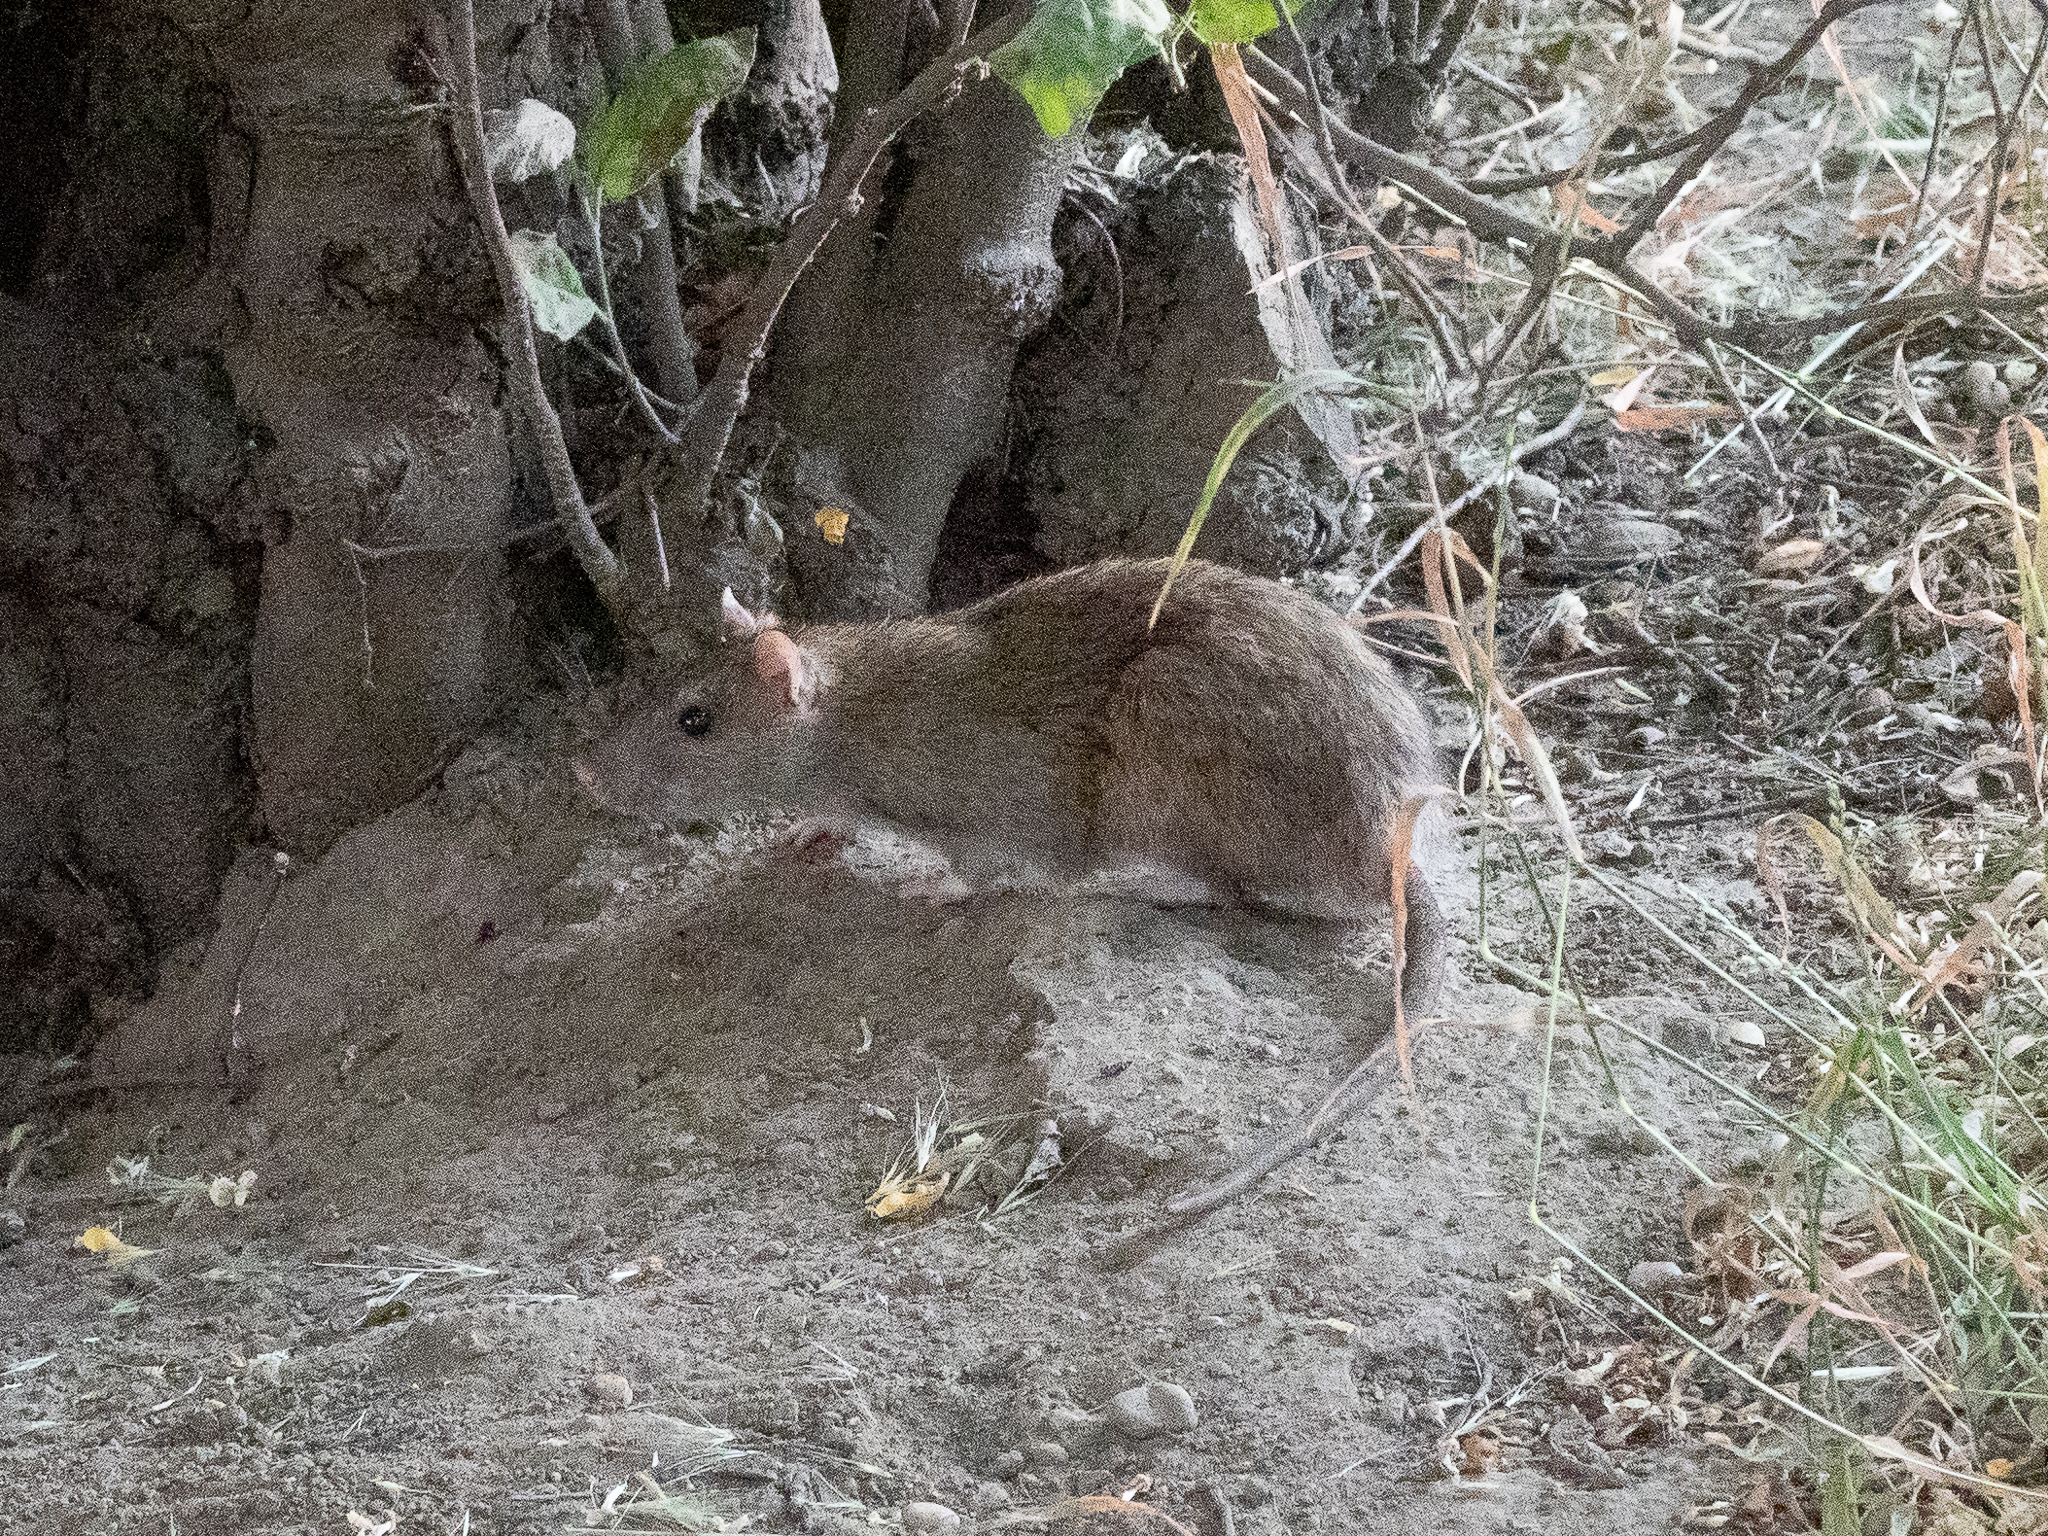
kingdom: Animalia
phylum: Chordata
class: Mammalia
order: Rodentia
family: Muridae
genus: Rattus
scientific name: Rattus norvegicus
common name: Brown rat
